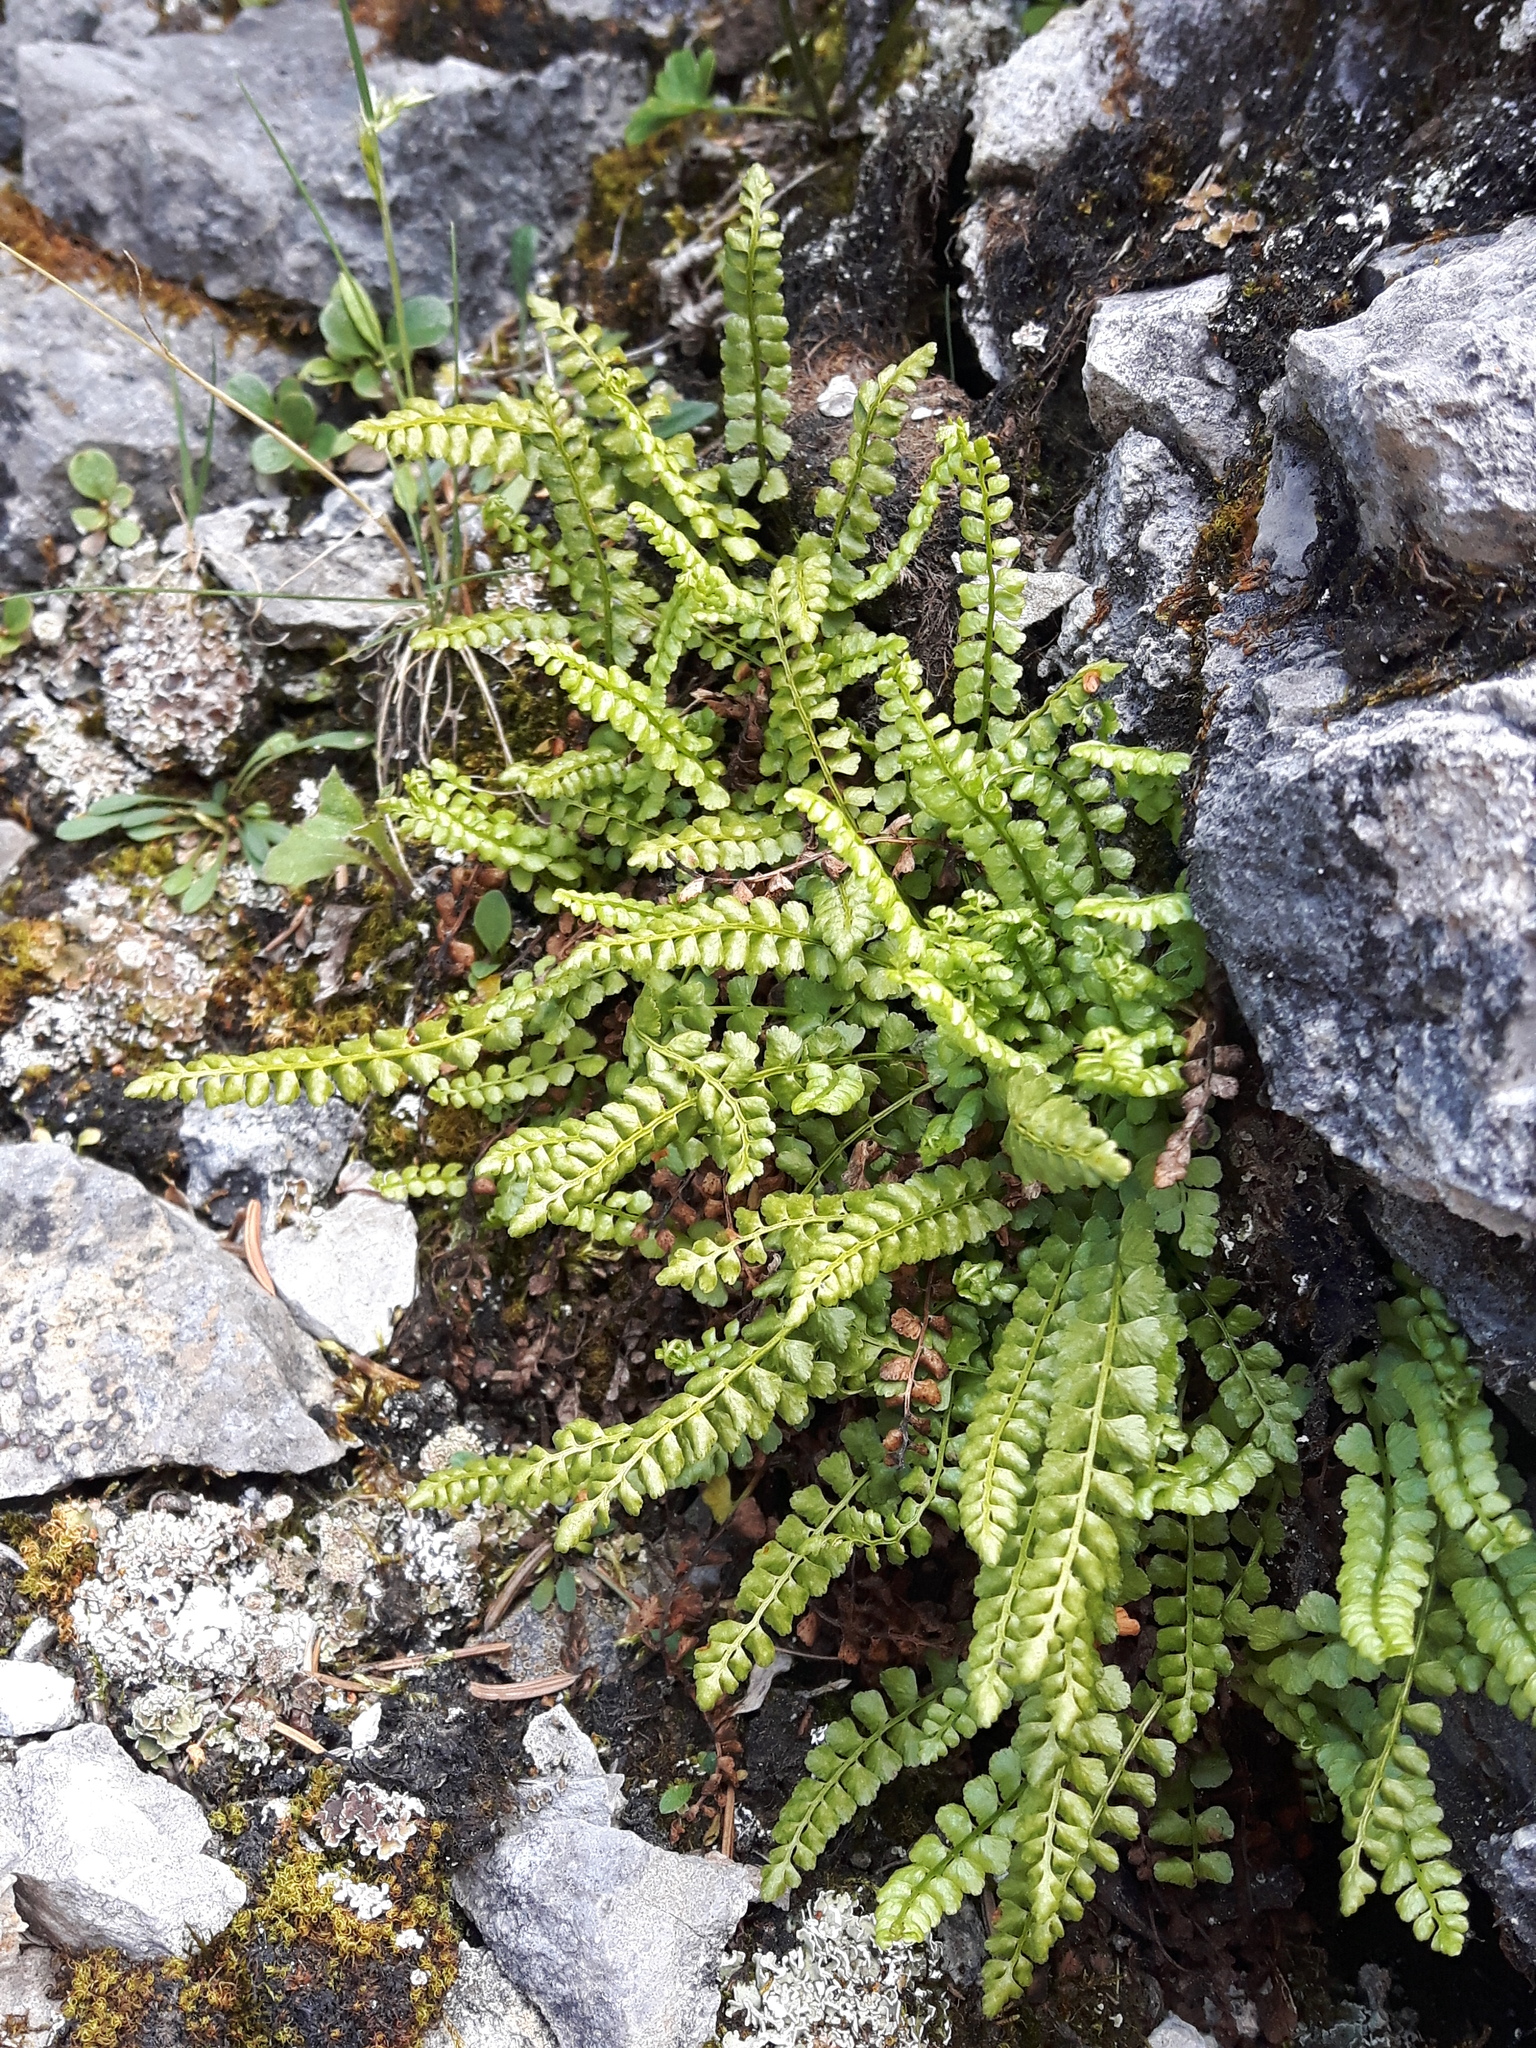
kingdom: Plantae
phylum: Tracheophyta
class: Polypodiopsida
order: Polypodiales
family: Aspleniaceae
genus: Asplenium
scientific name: Asplenium viride
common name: Green spleenwort
